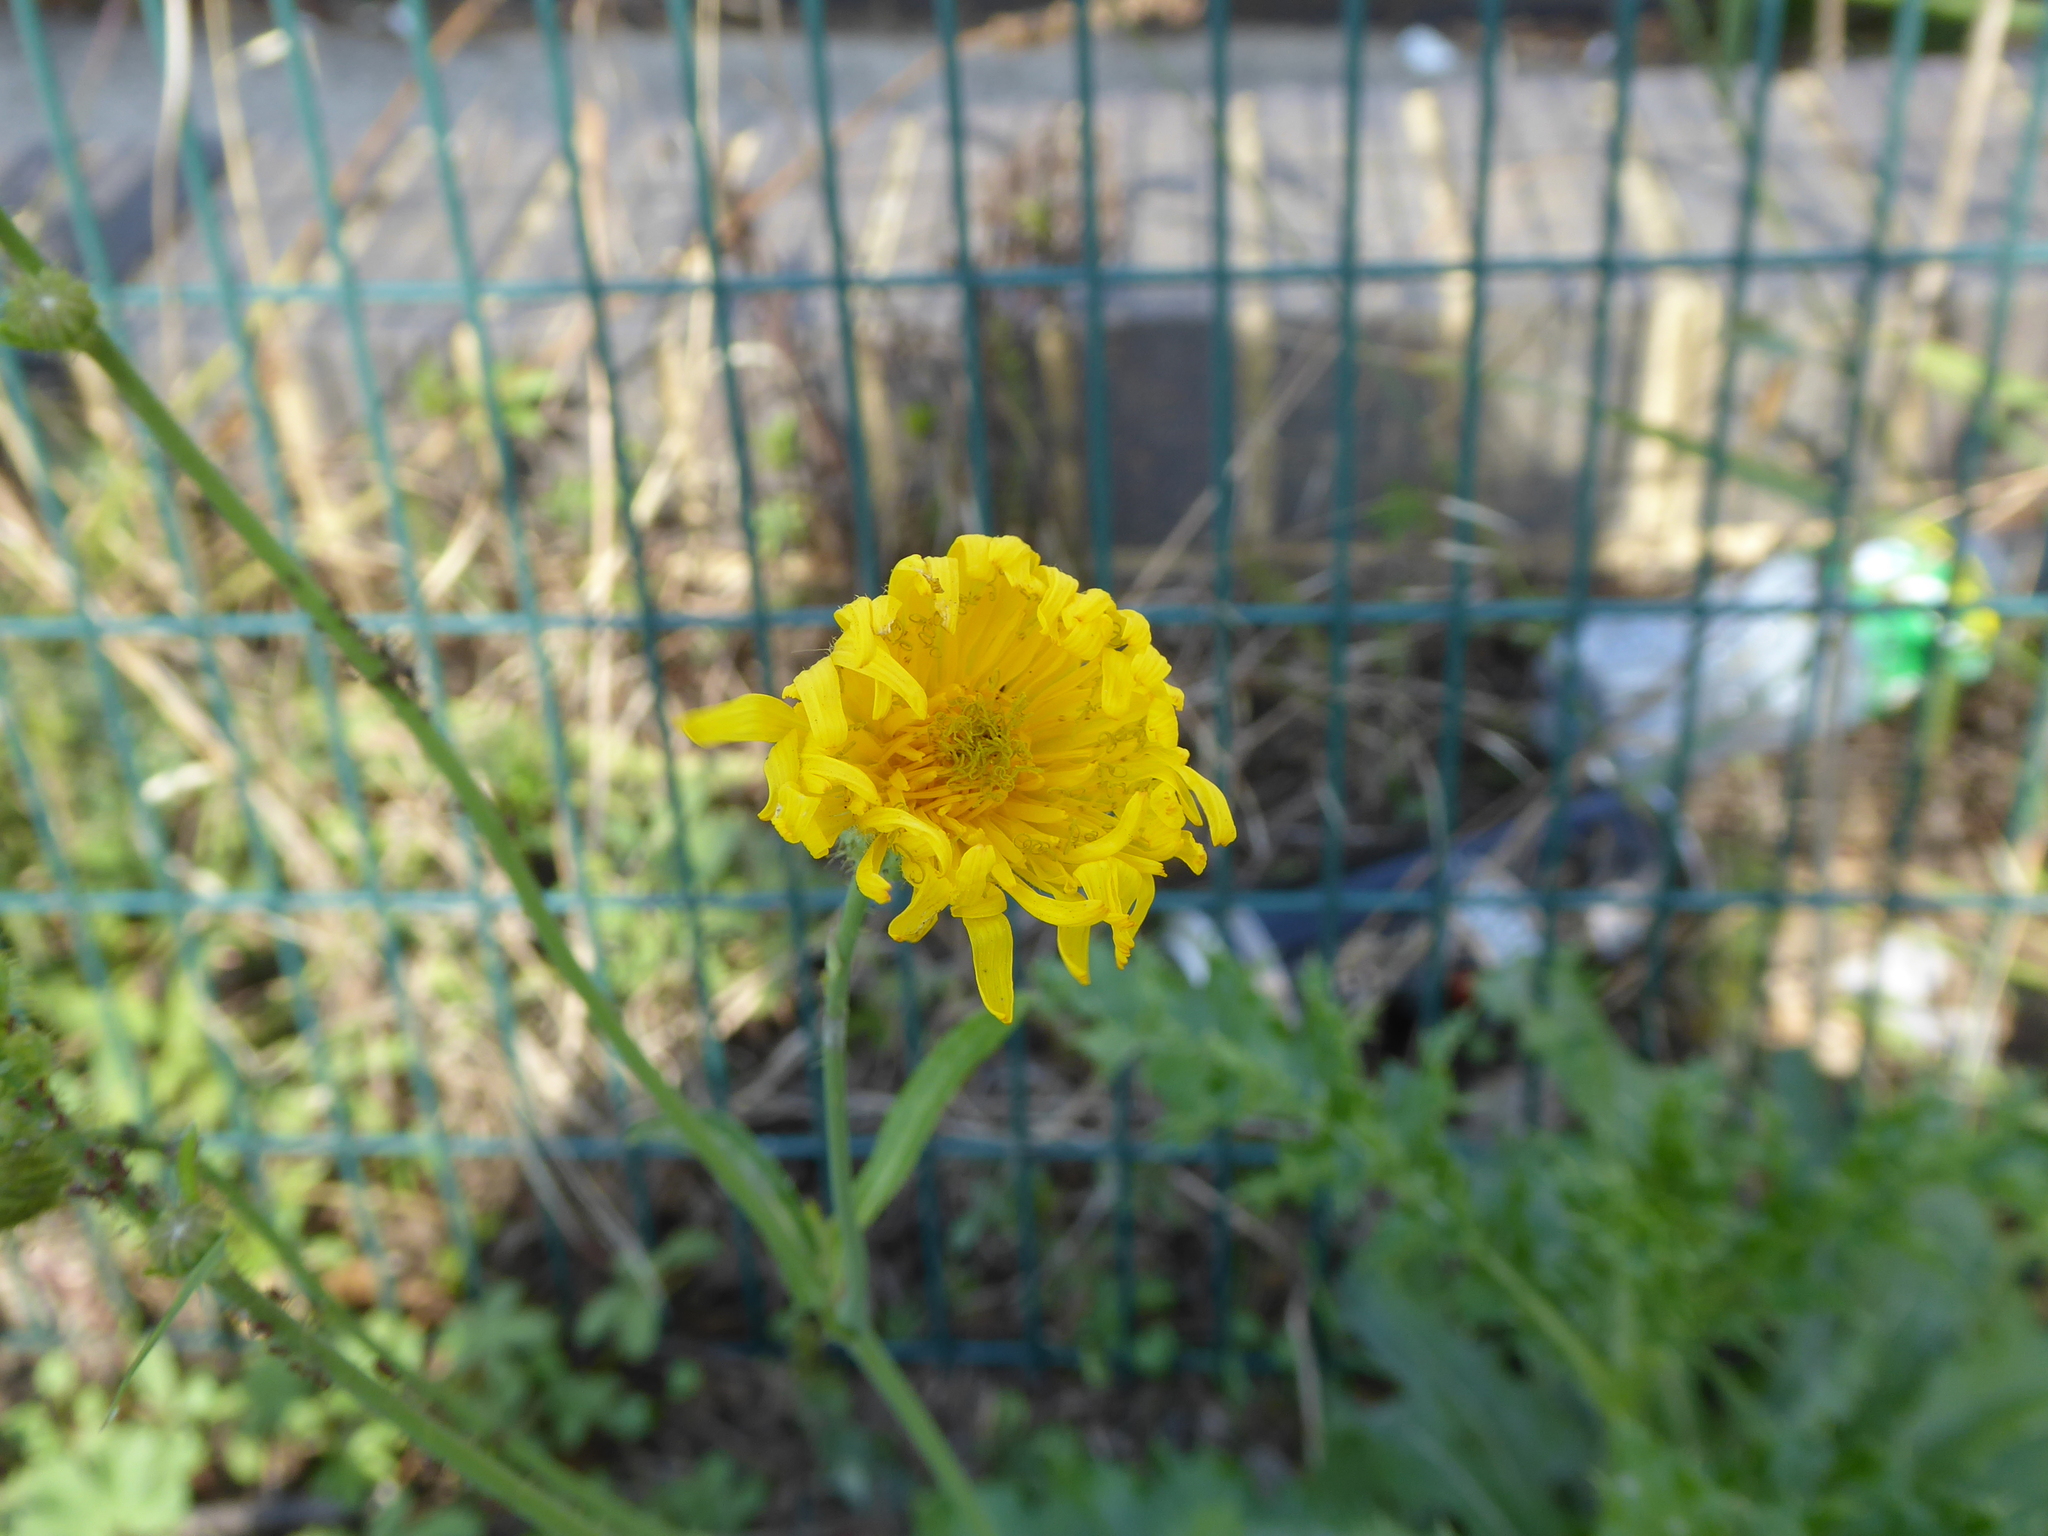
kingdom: Plantae
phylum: Tracheophyta
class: Magnoliopsida
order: Asterales
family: Asteraceae
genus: Sonchus
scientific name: Sonchus arvensis
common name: Perennial sow-thistle
